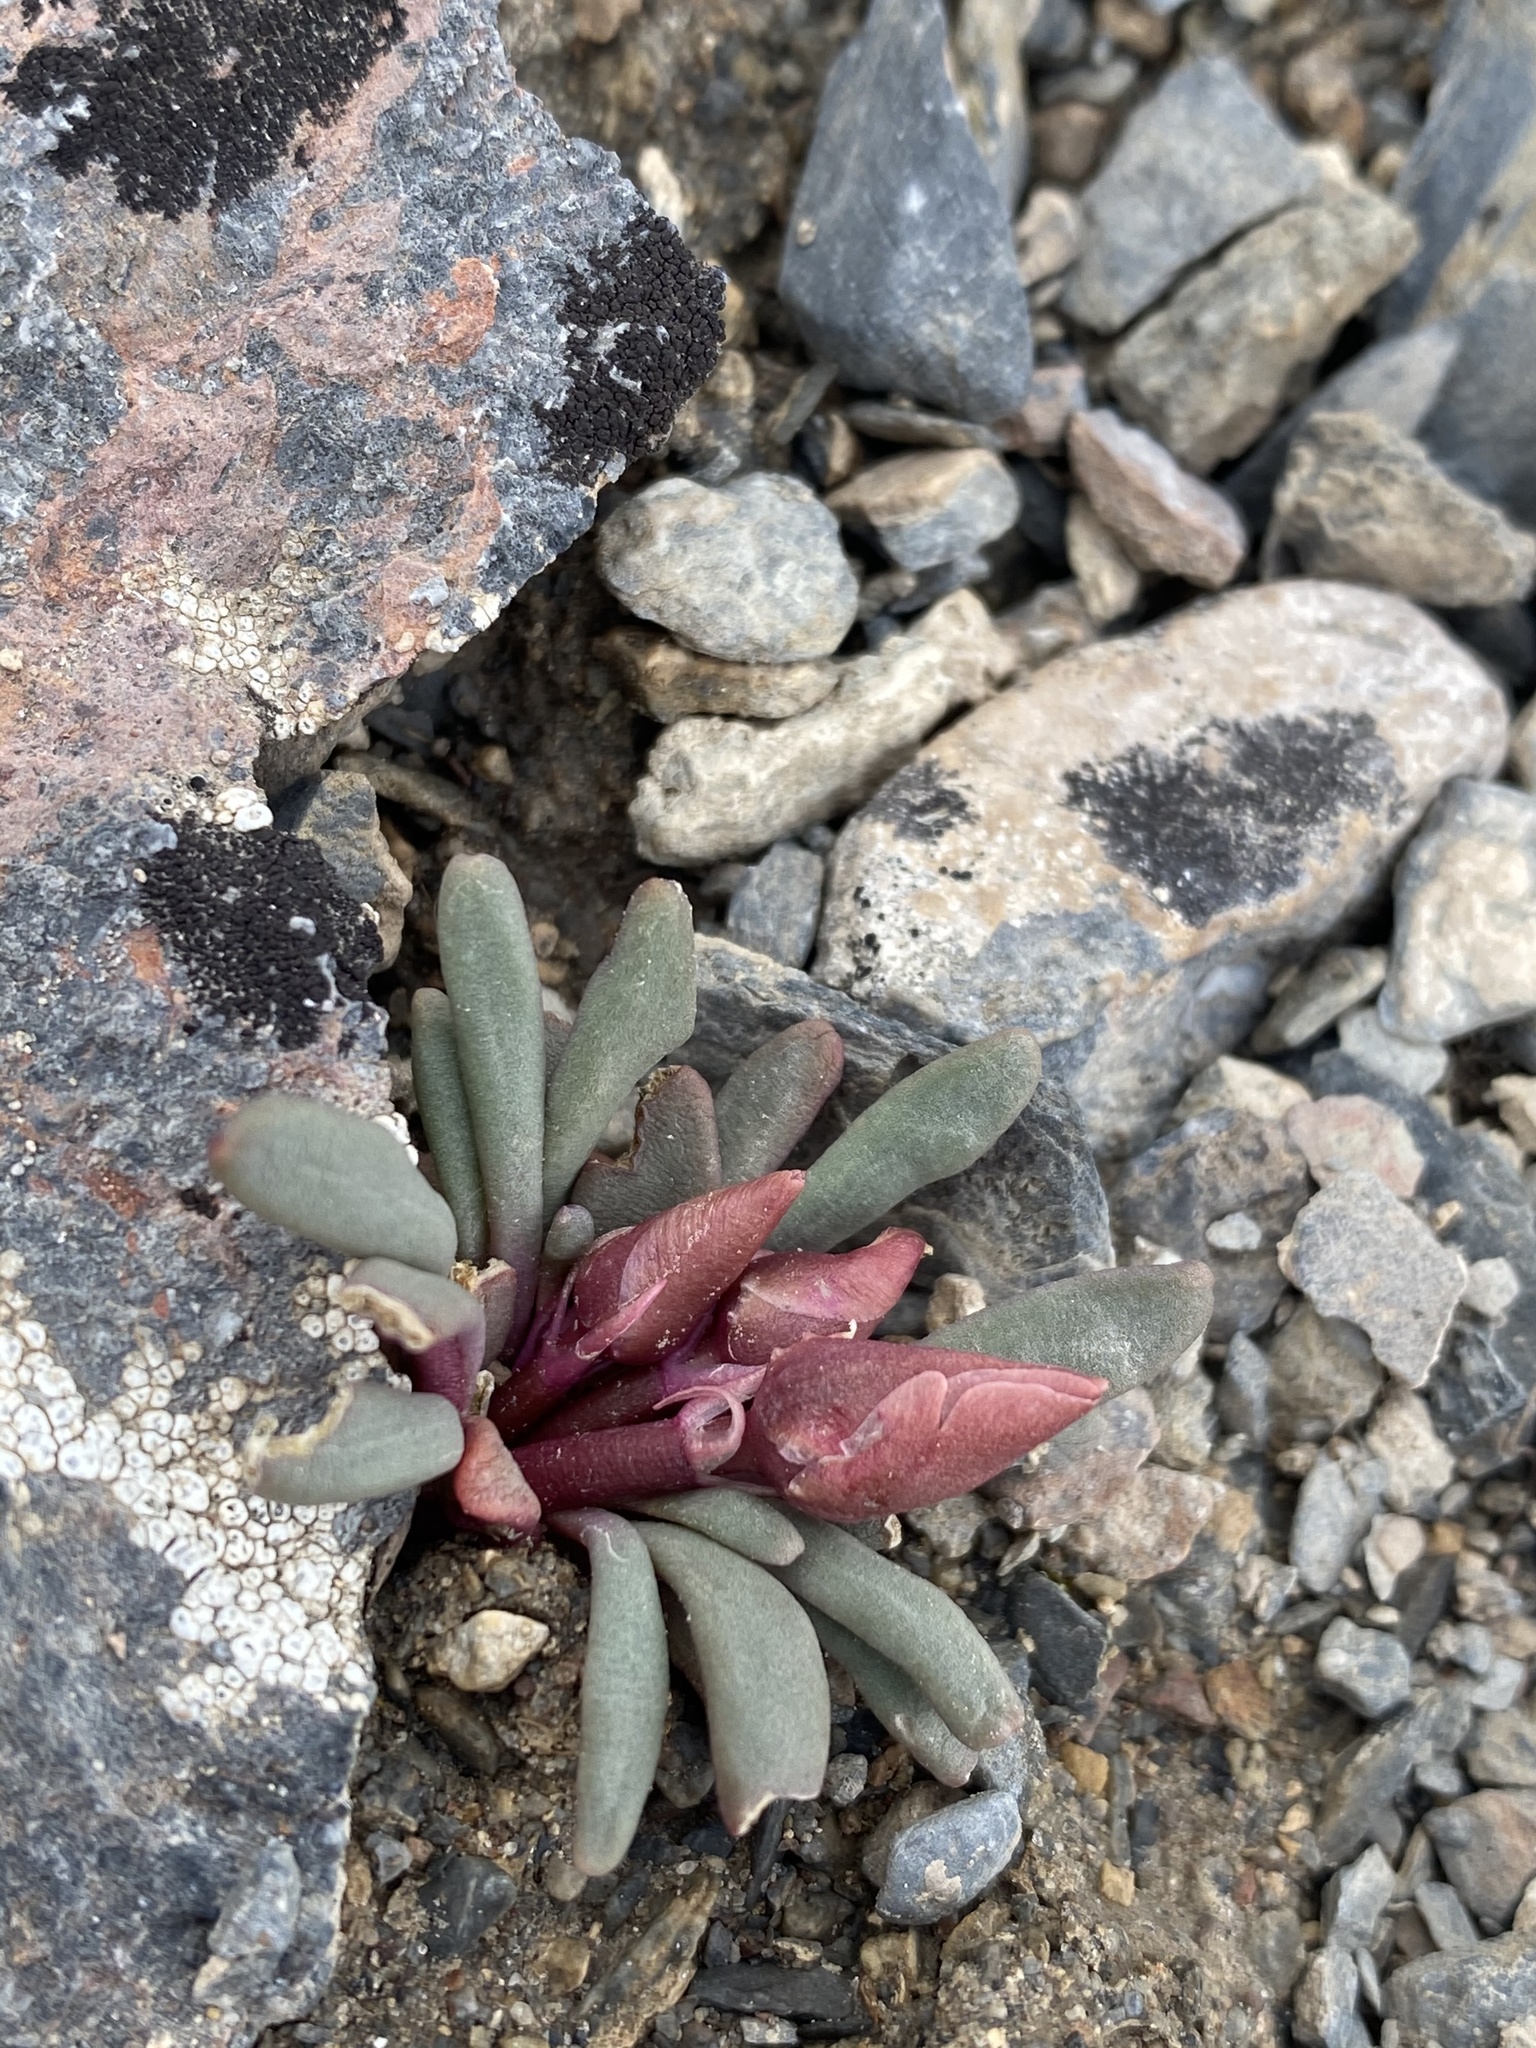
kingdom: Plantae
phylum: Tracheophyta
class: Magnoliopsida
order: Caryophyllales
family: Montiaceae
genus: Lewisia
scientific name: Lewisia rediviva
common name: Bitter-root
